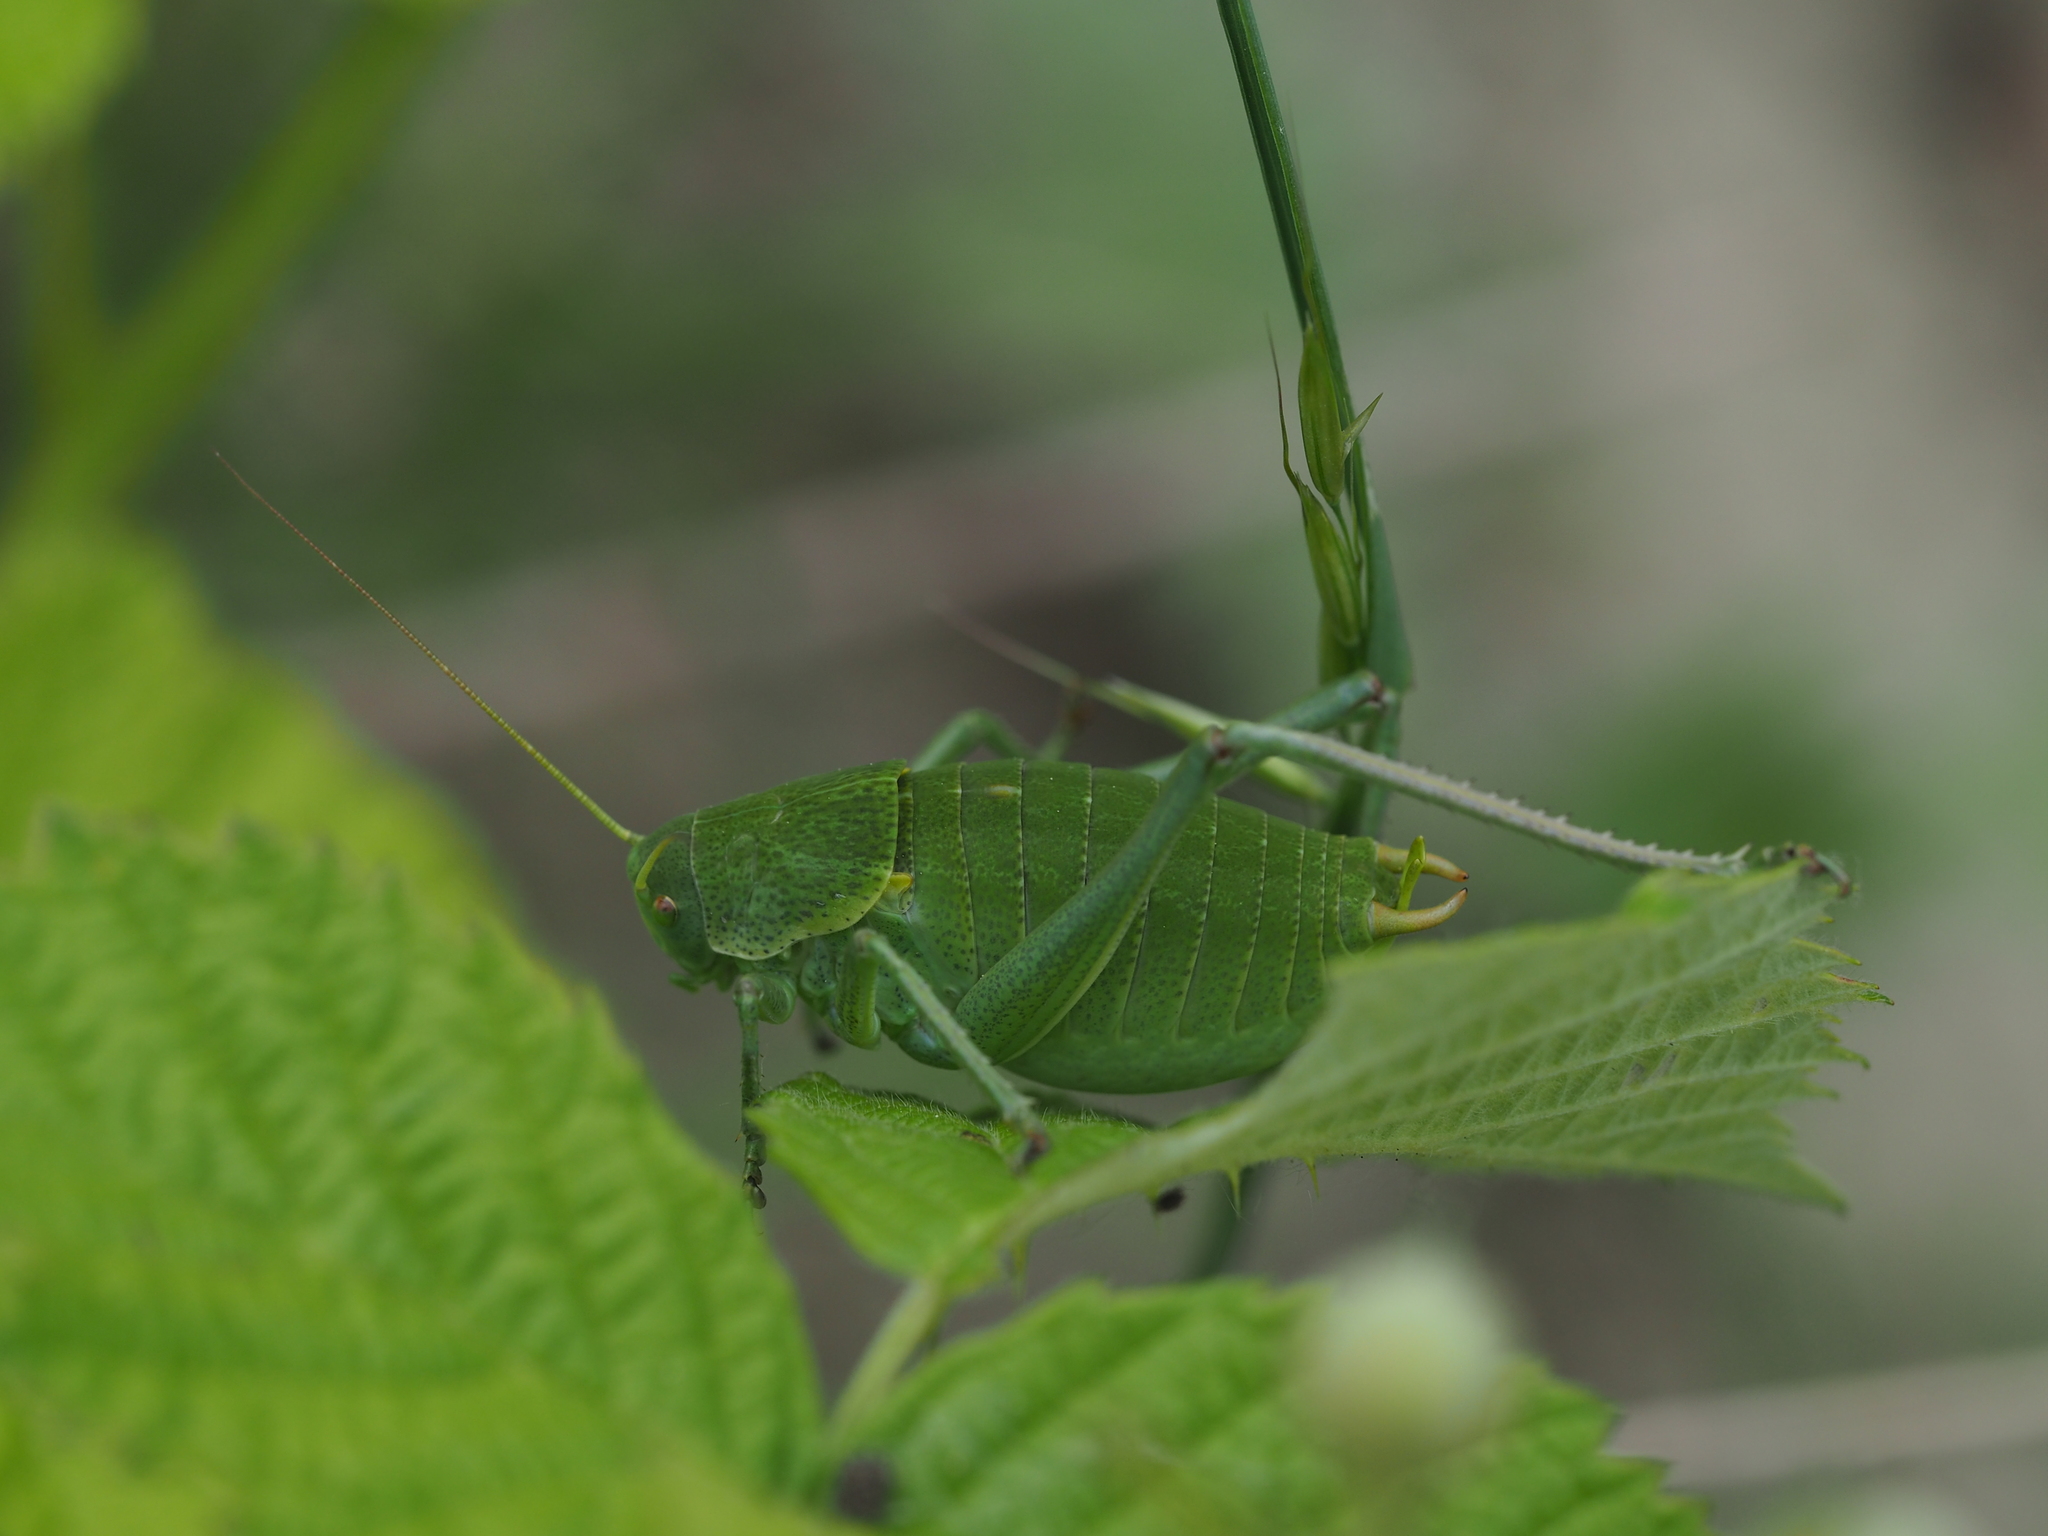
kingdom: Animalia
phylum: Arthropoda
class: Insecta
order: Orthoptera
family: Tettigoniidae
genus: Polysarcus
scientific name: Polysarcus denticauda
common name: Large saw-tailed bush-cricket
